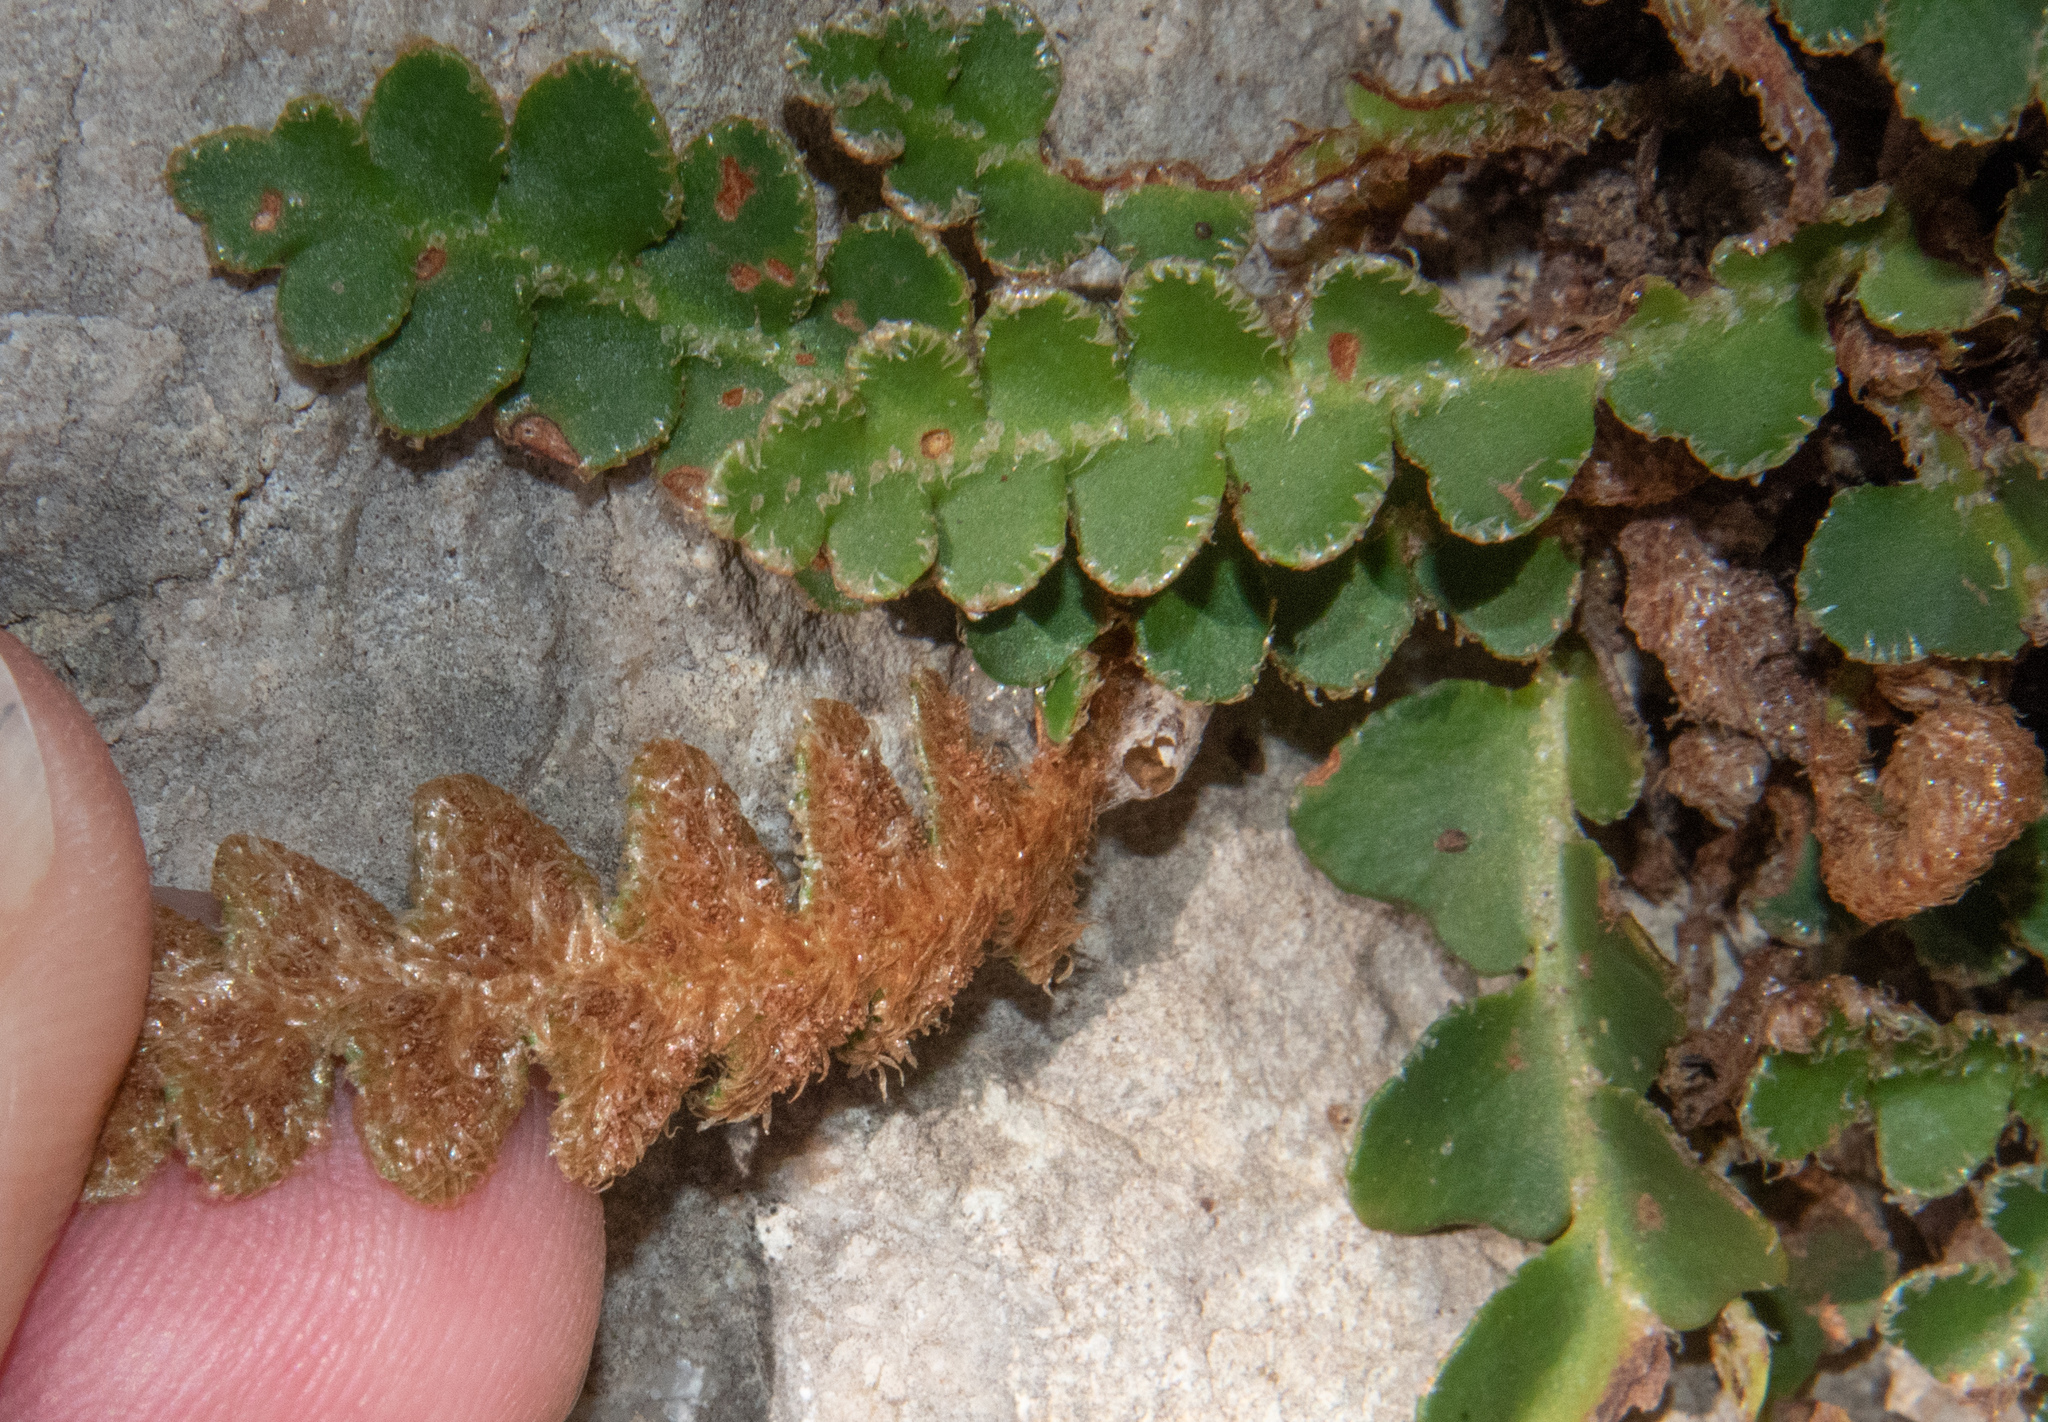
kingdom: Plantae
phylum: Tracheophyta
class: Polypodiopsida
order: Polypodiales
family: Aspleniaceae
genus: Asplenium
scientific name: Asplenium ceterach
